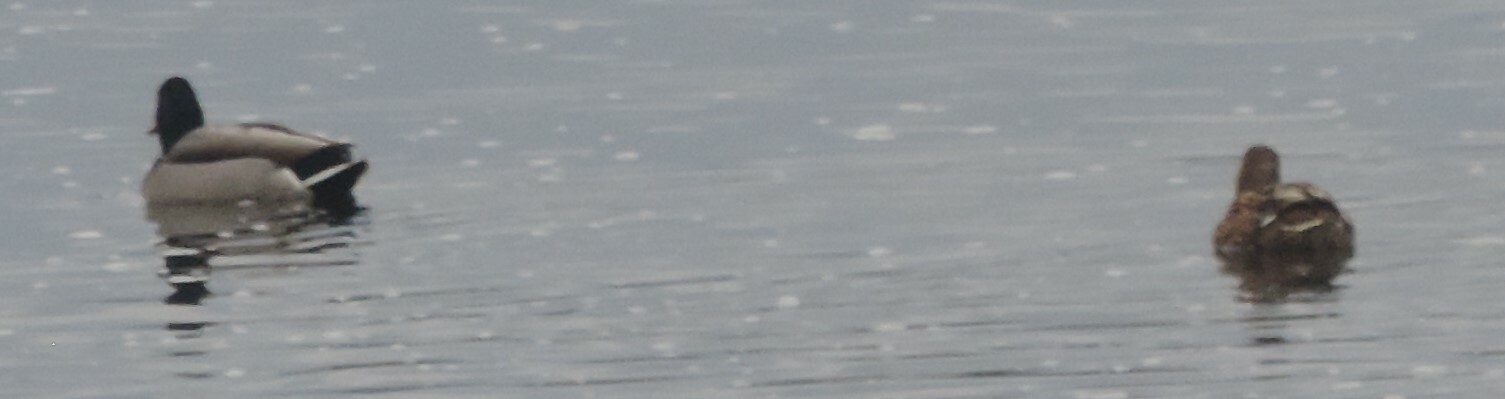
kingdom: Animalia
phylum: Chordata
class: Aves
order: Anseriformes
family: Anatidae
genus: Anas
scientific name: Anas platyrhynchos
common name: Mallard
